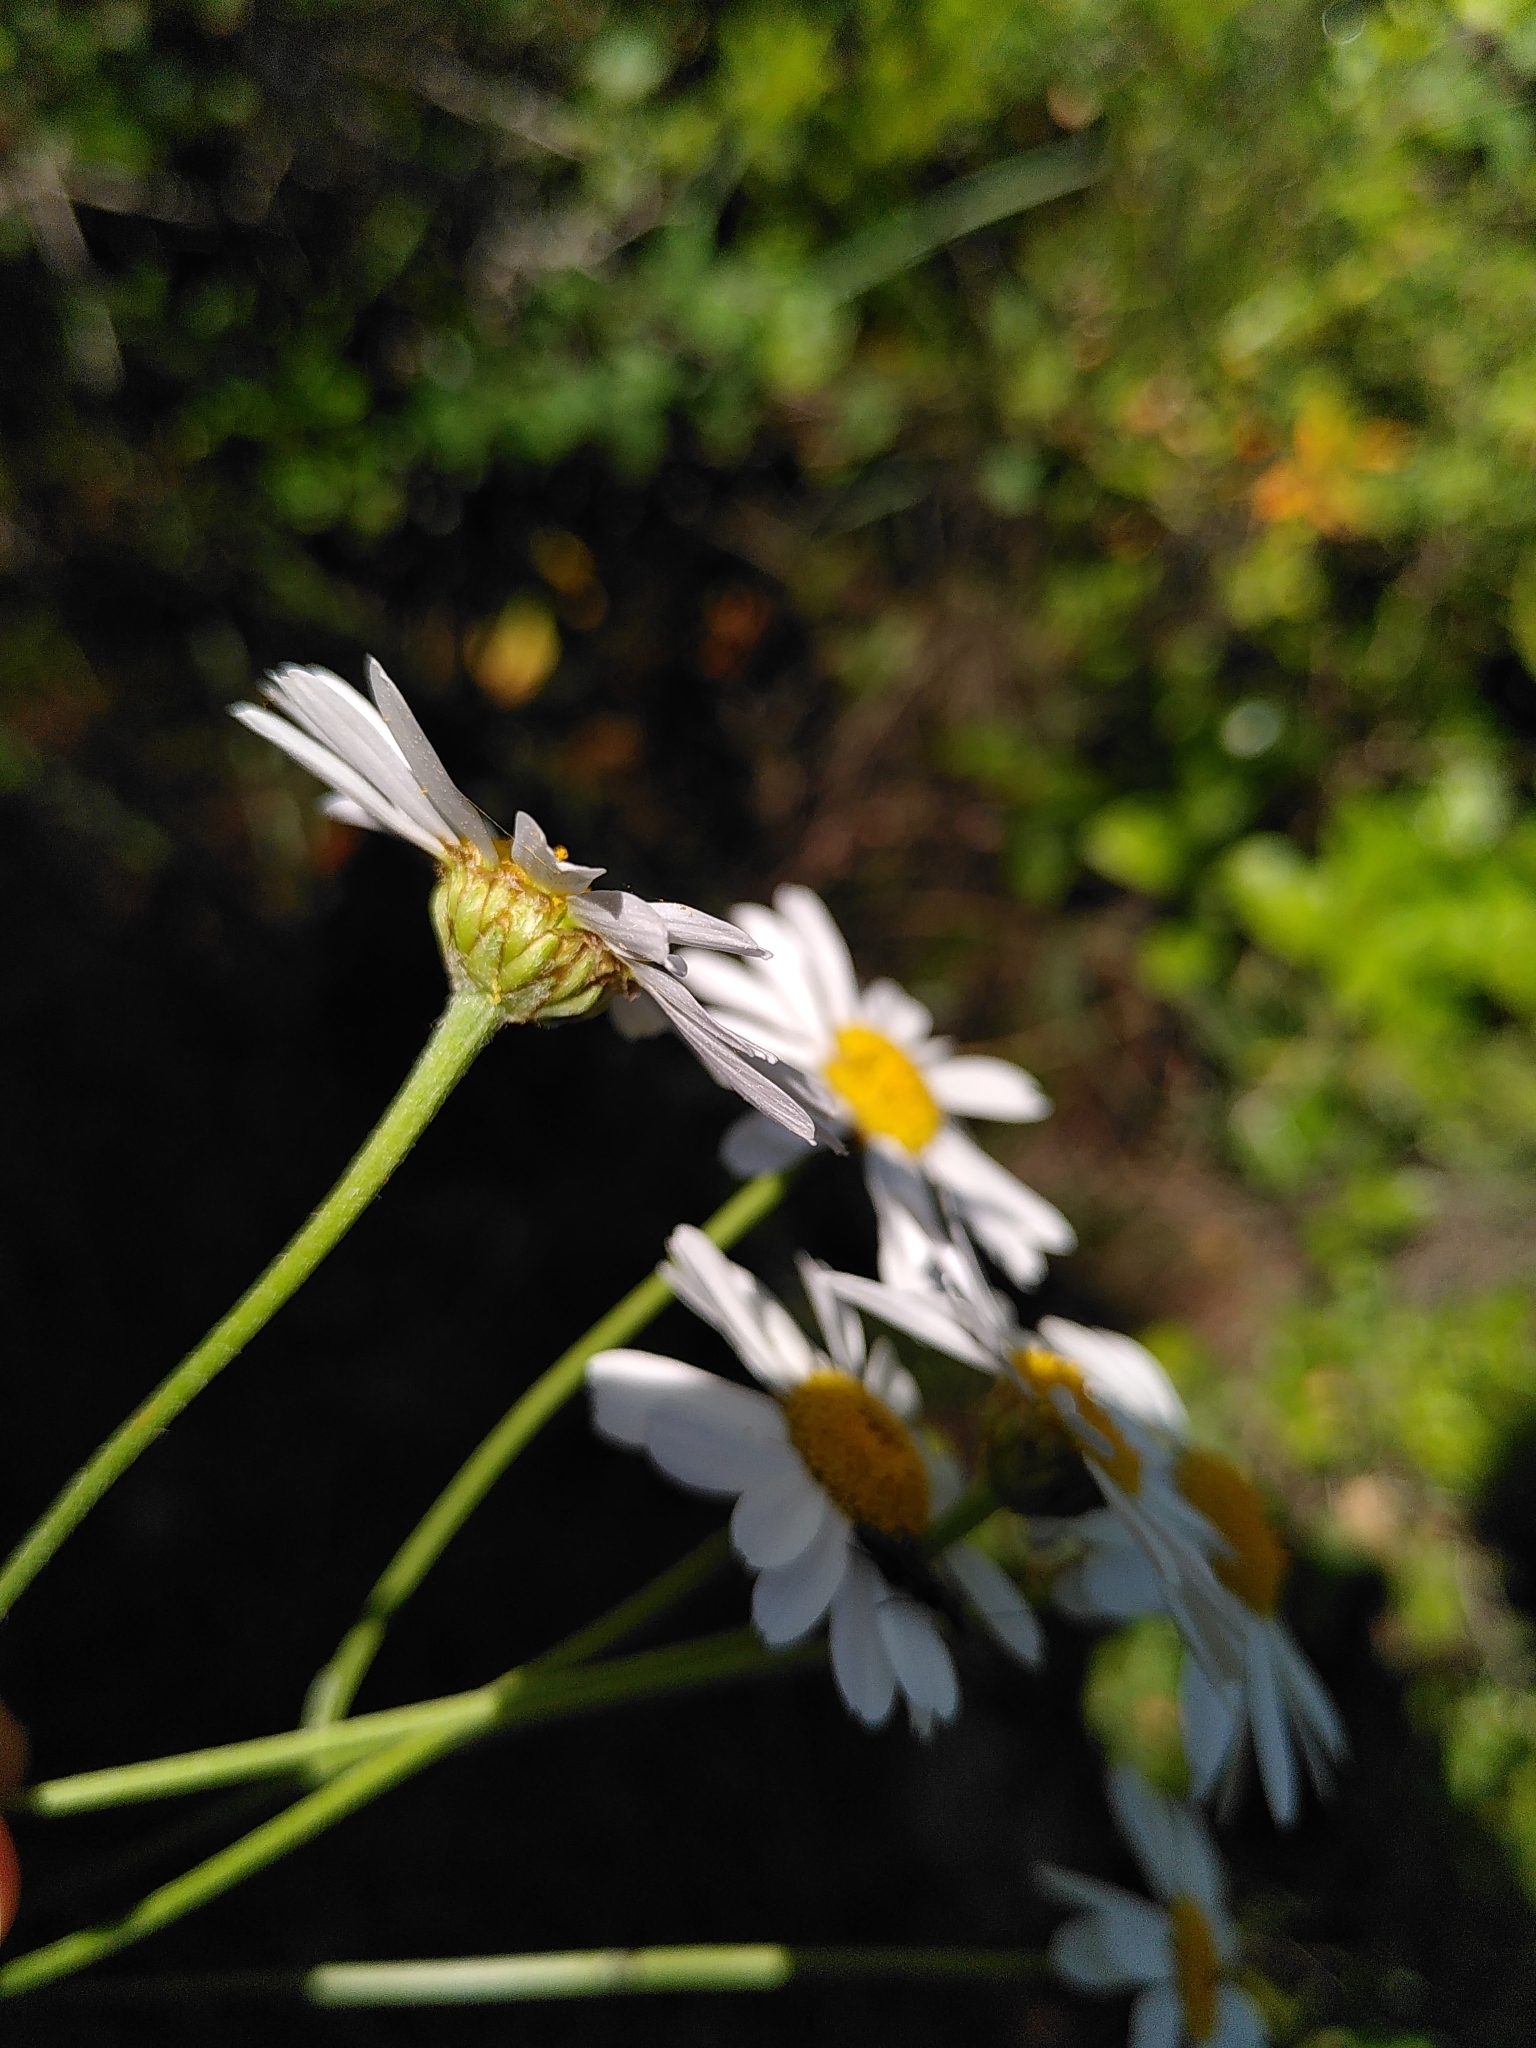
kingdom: Plantae
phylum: Tracheophyta
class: Magnoliopsida
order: Asterales
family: Asteraceae
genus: Tanacetum
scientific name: Tanacetum corymbosum
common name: Scentless feverfew
